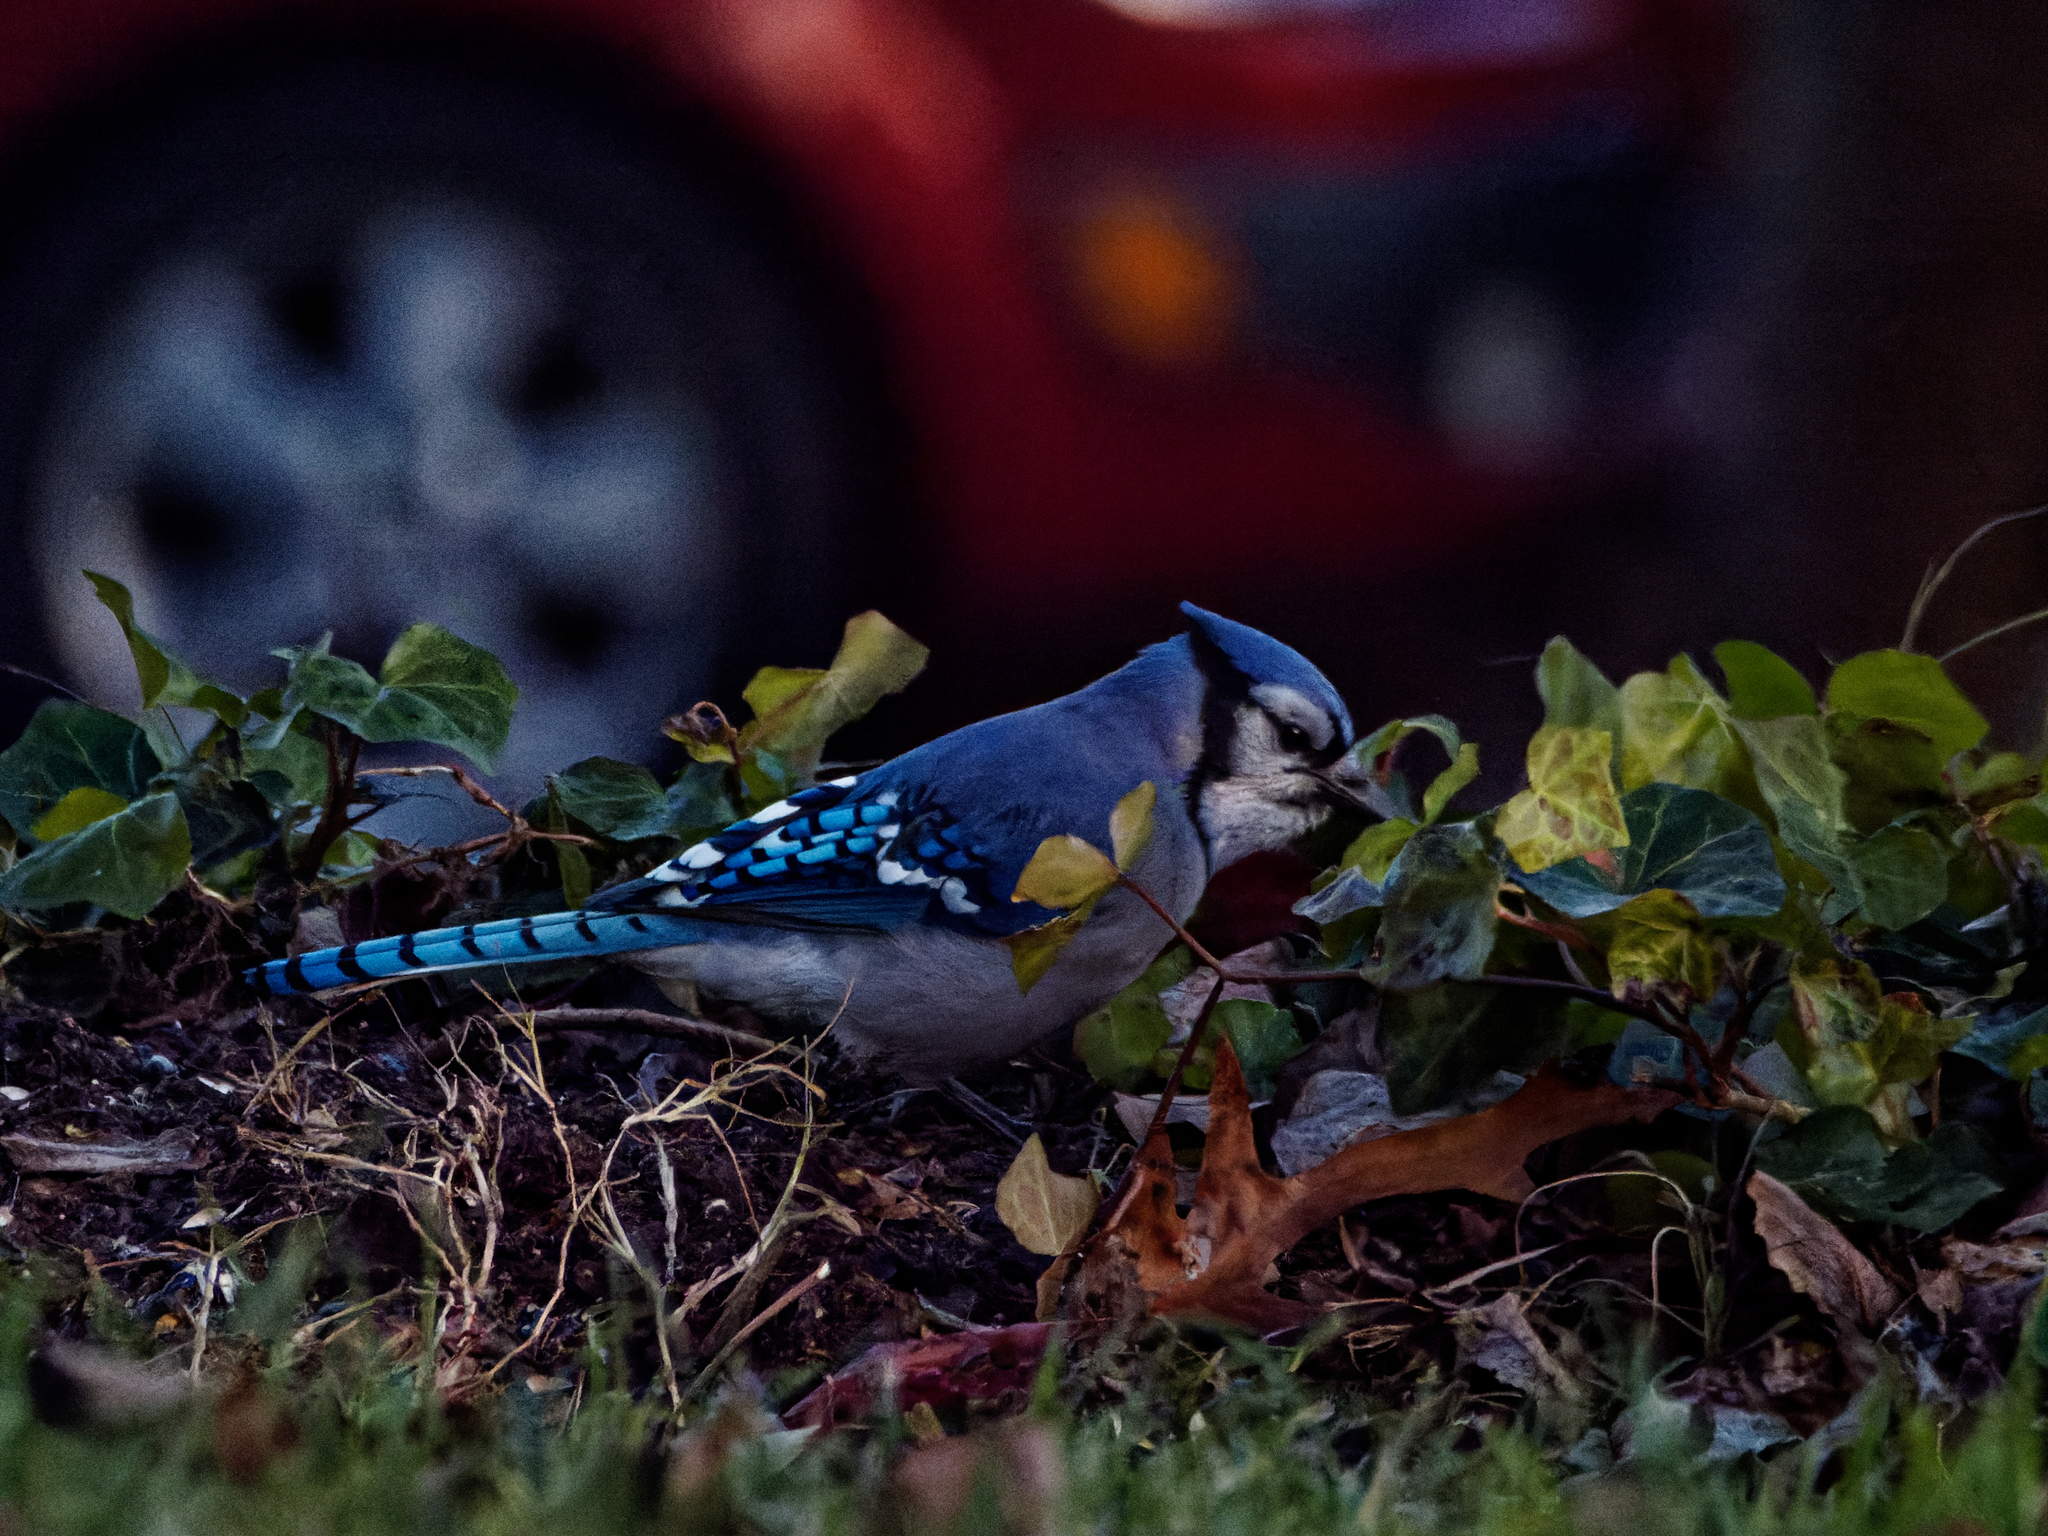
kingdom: Animalia
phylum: Chordata
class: Aves
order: Passeriformes
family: Corvidae
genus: Cyanocitta
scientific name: Cyanocitta cristata
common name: Blue jay
